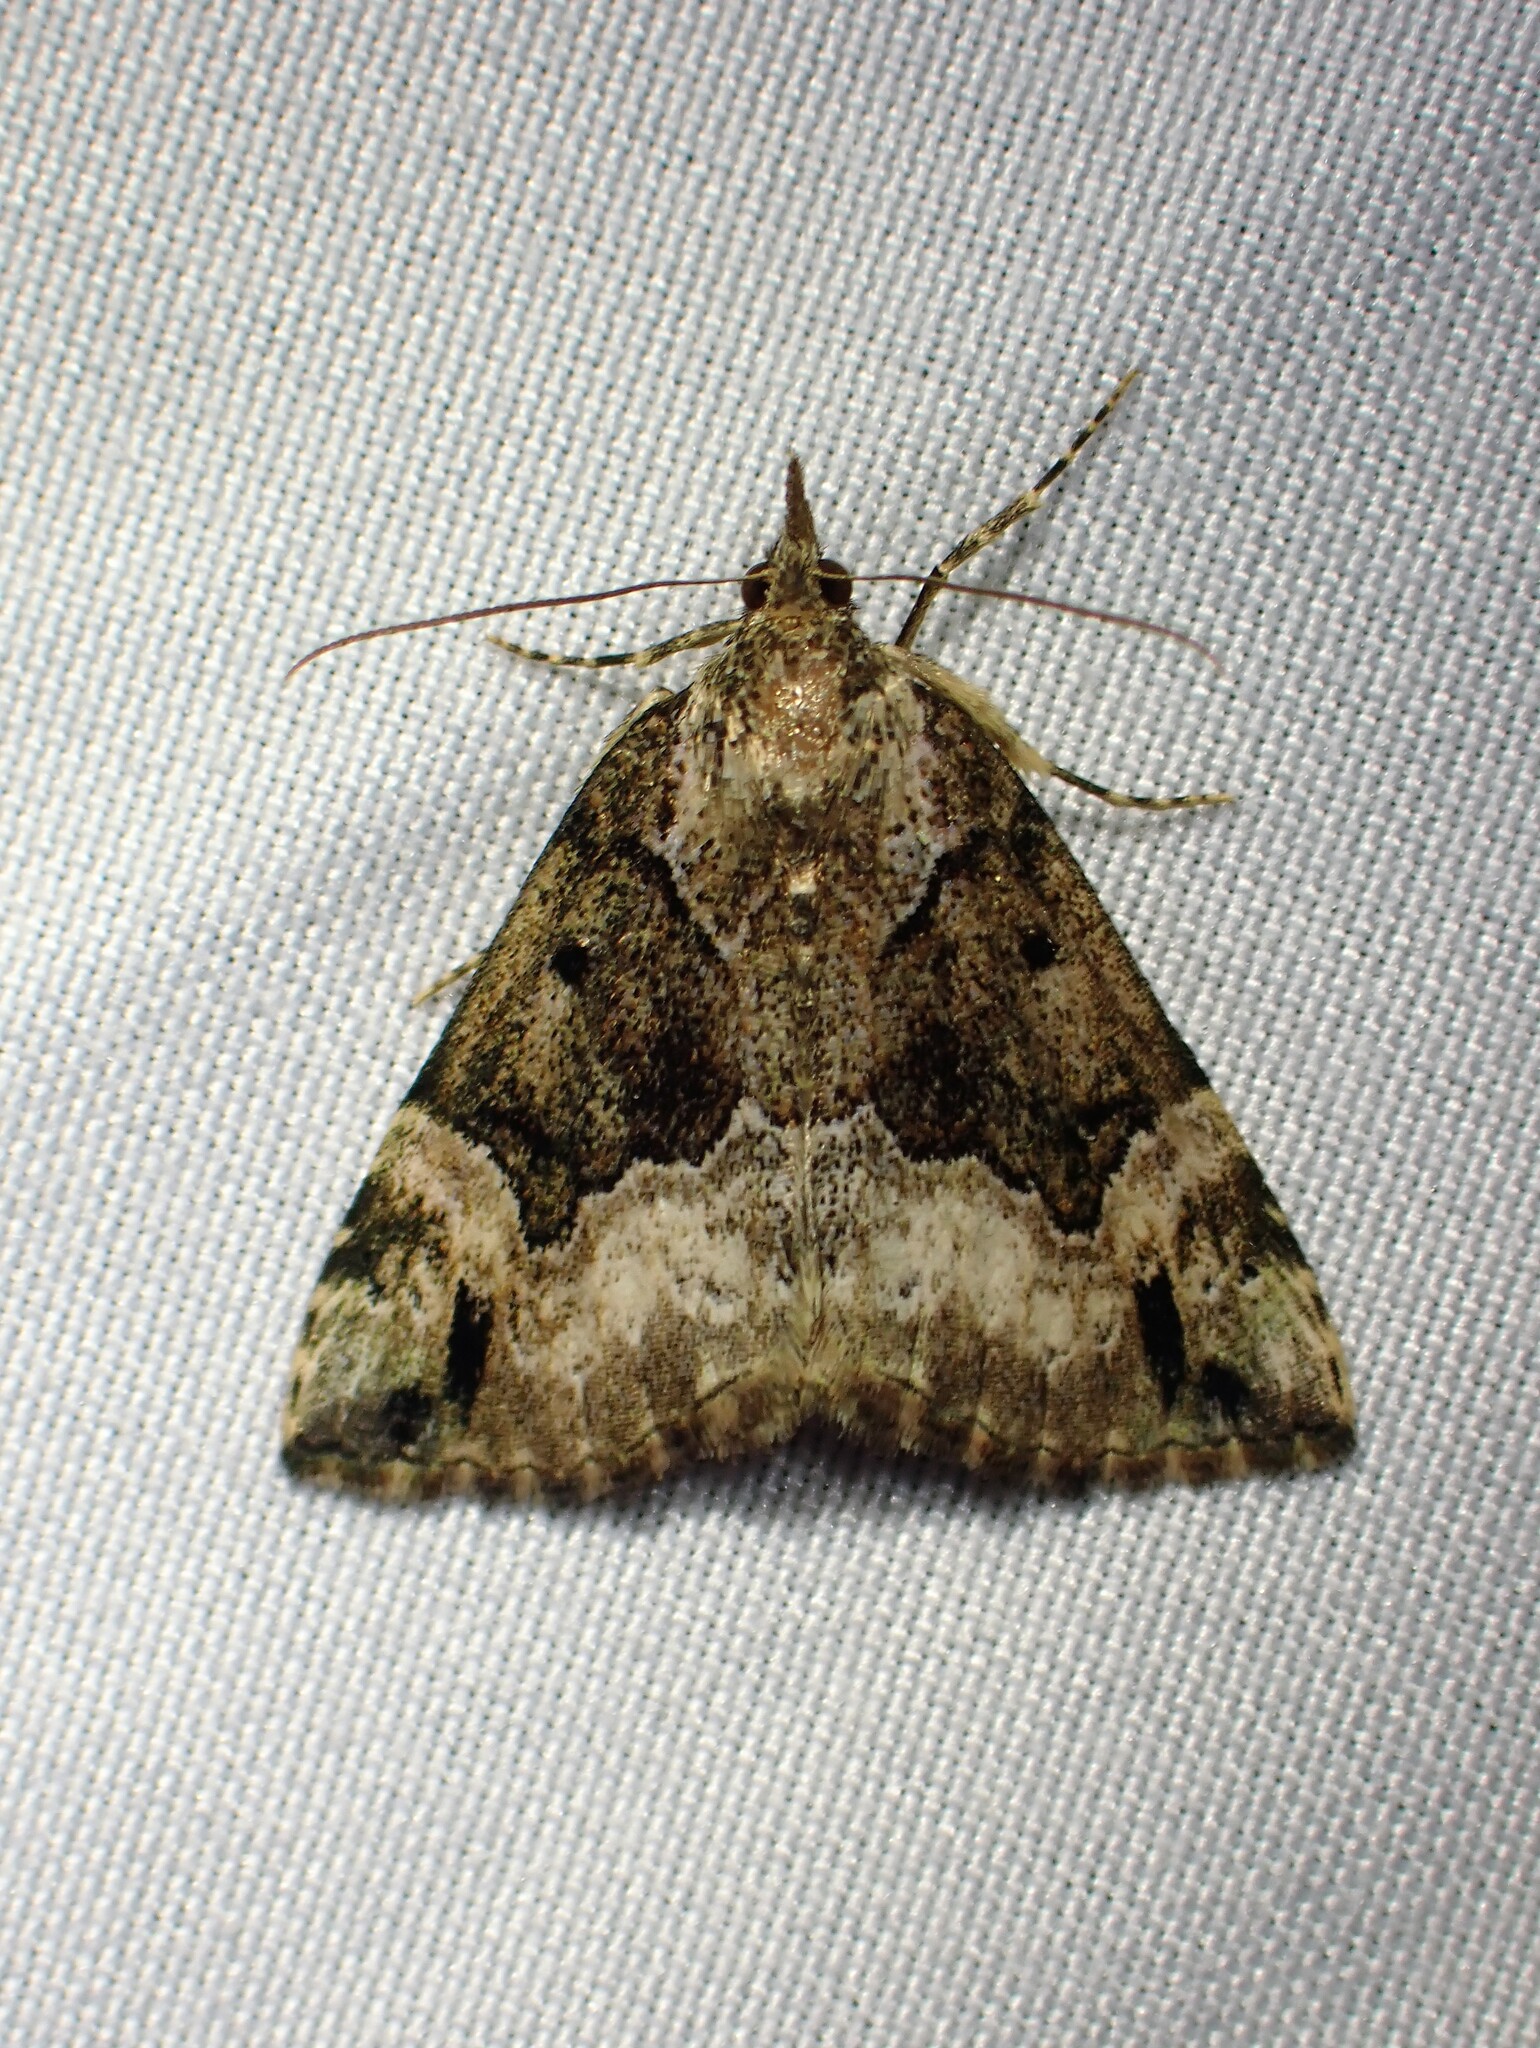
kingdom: Animalia
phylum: Arthropoda
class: Insecta
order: Lepidoptera
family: Erebidae
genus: Hypena
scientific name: Hypena palparia
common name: Mottled bomolocha moth
